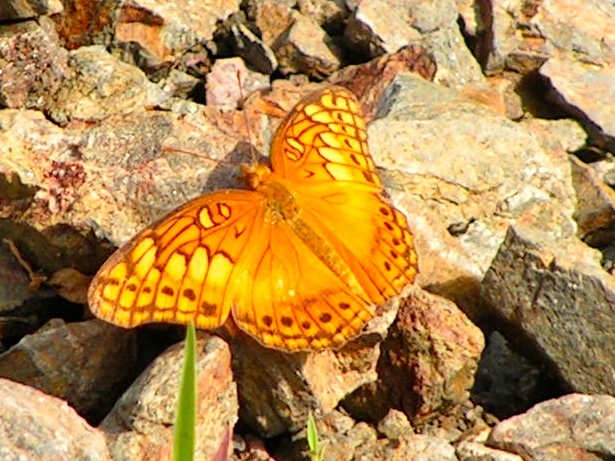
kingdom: Animalia
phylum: Arthropoda
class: Insecta
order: Lepidoptera
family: Nymphalidae
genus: Euptoieta
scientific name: Euptoieta hegesia
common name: Mexican fritillary
